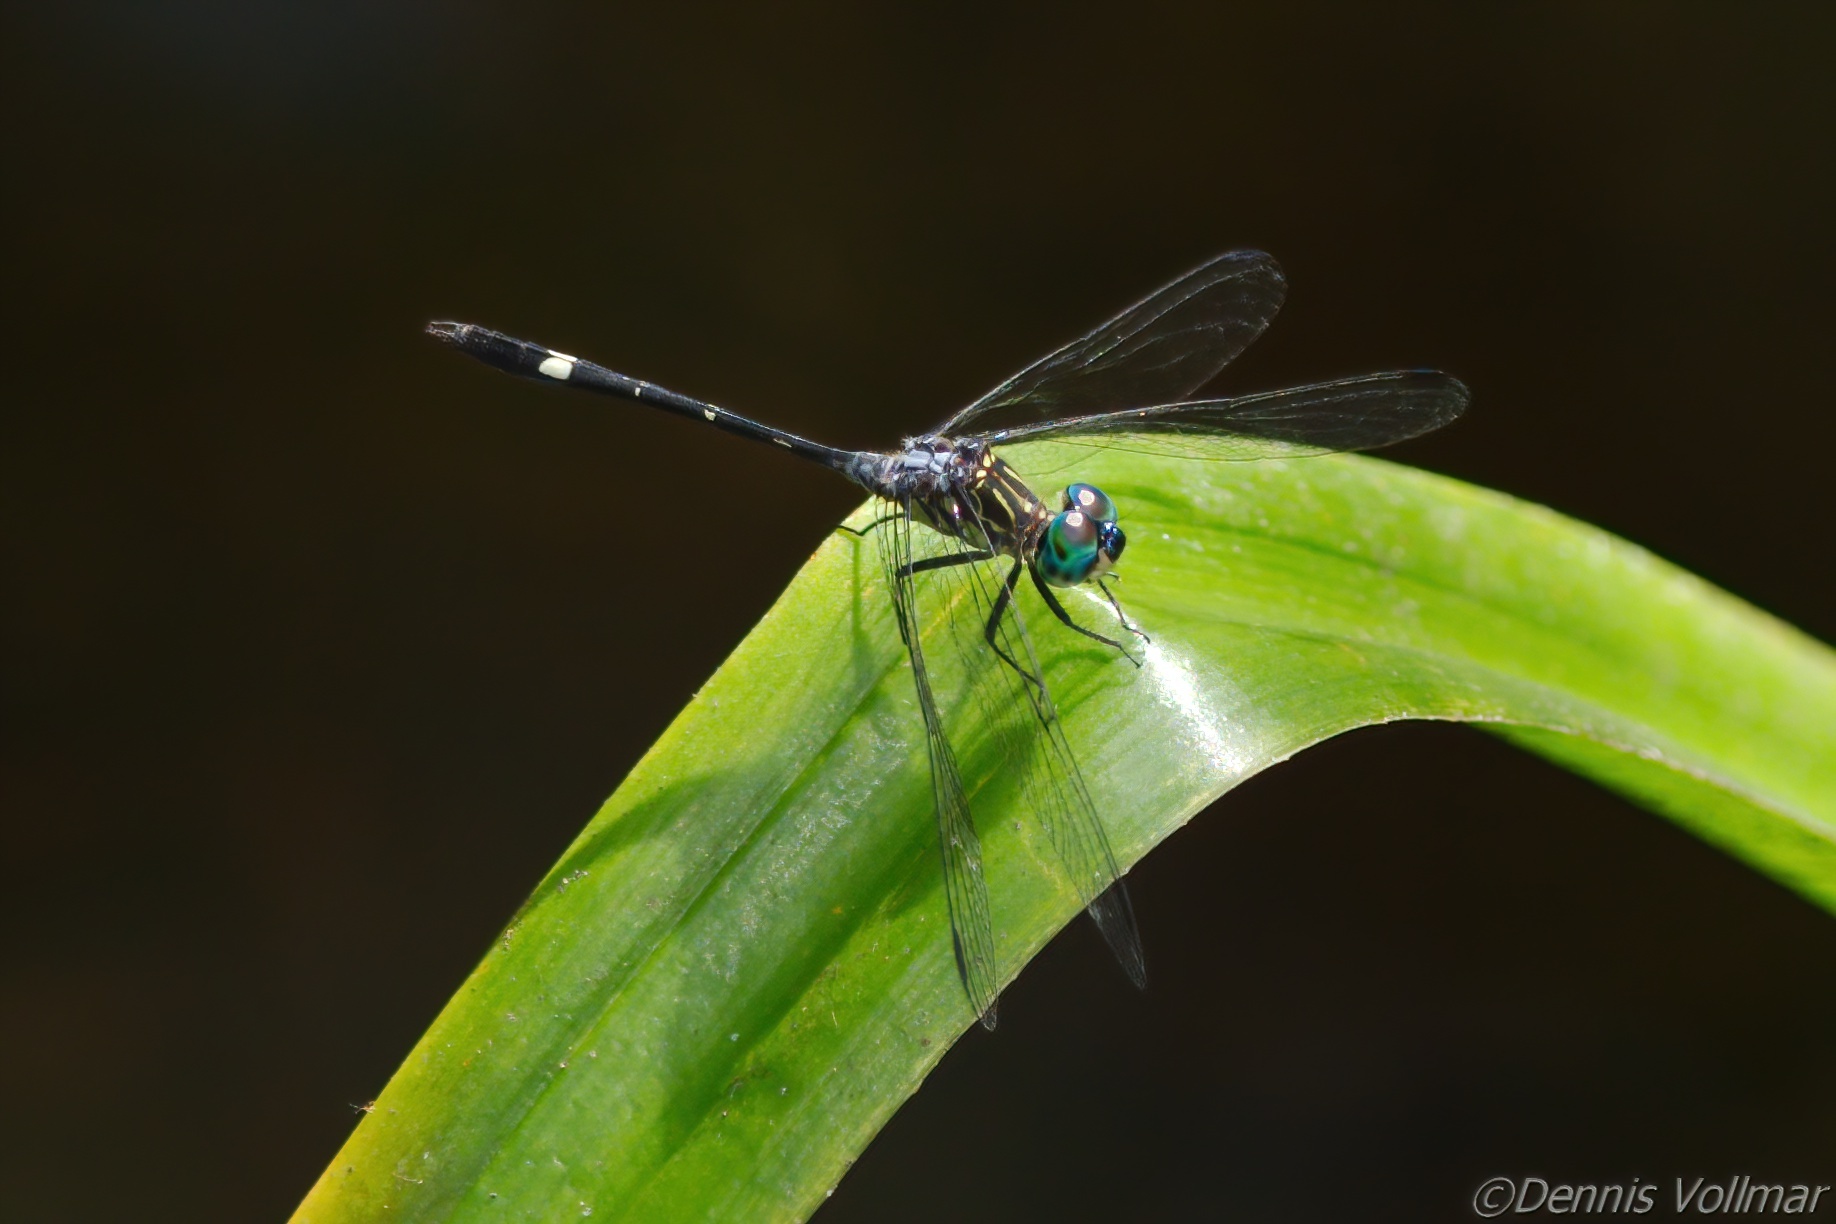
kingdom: Animalia
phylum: Arthropoda
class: Insecta
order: Odonata
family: Libellulidae
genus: Micrathyria
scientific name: Micrathyria didyma
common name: Three-striped dasher
